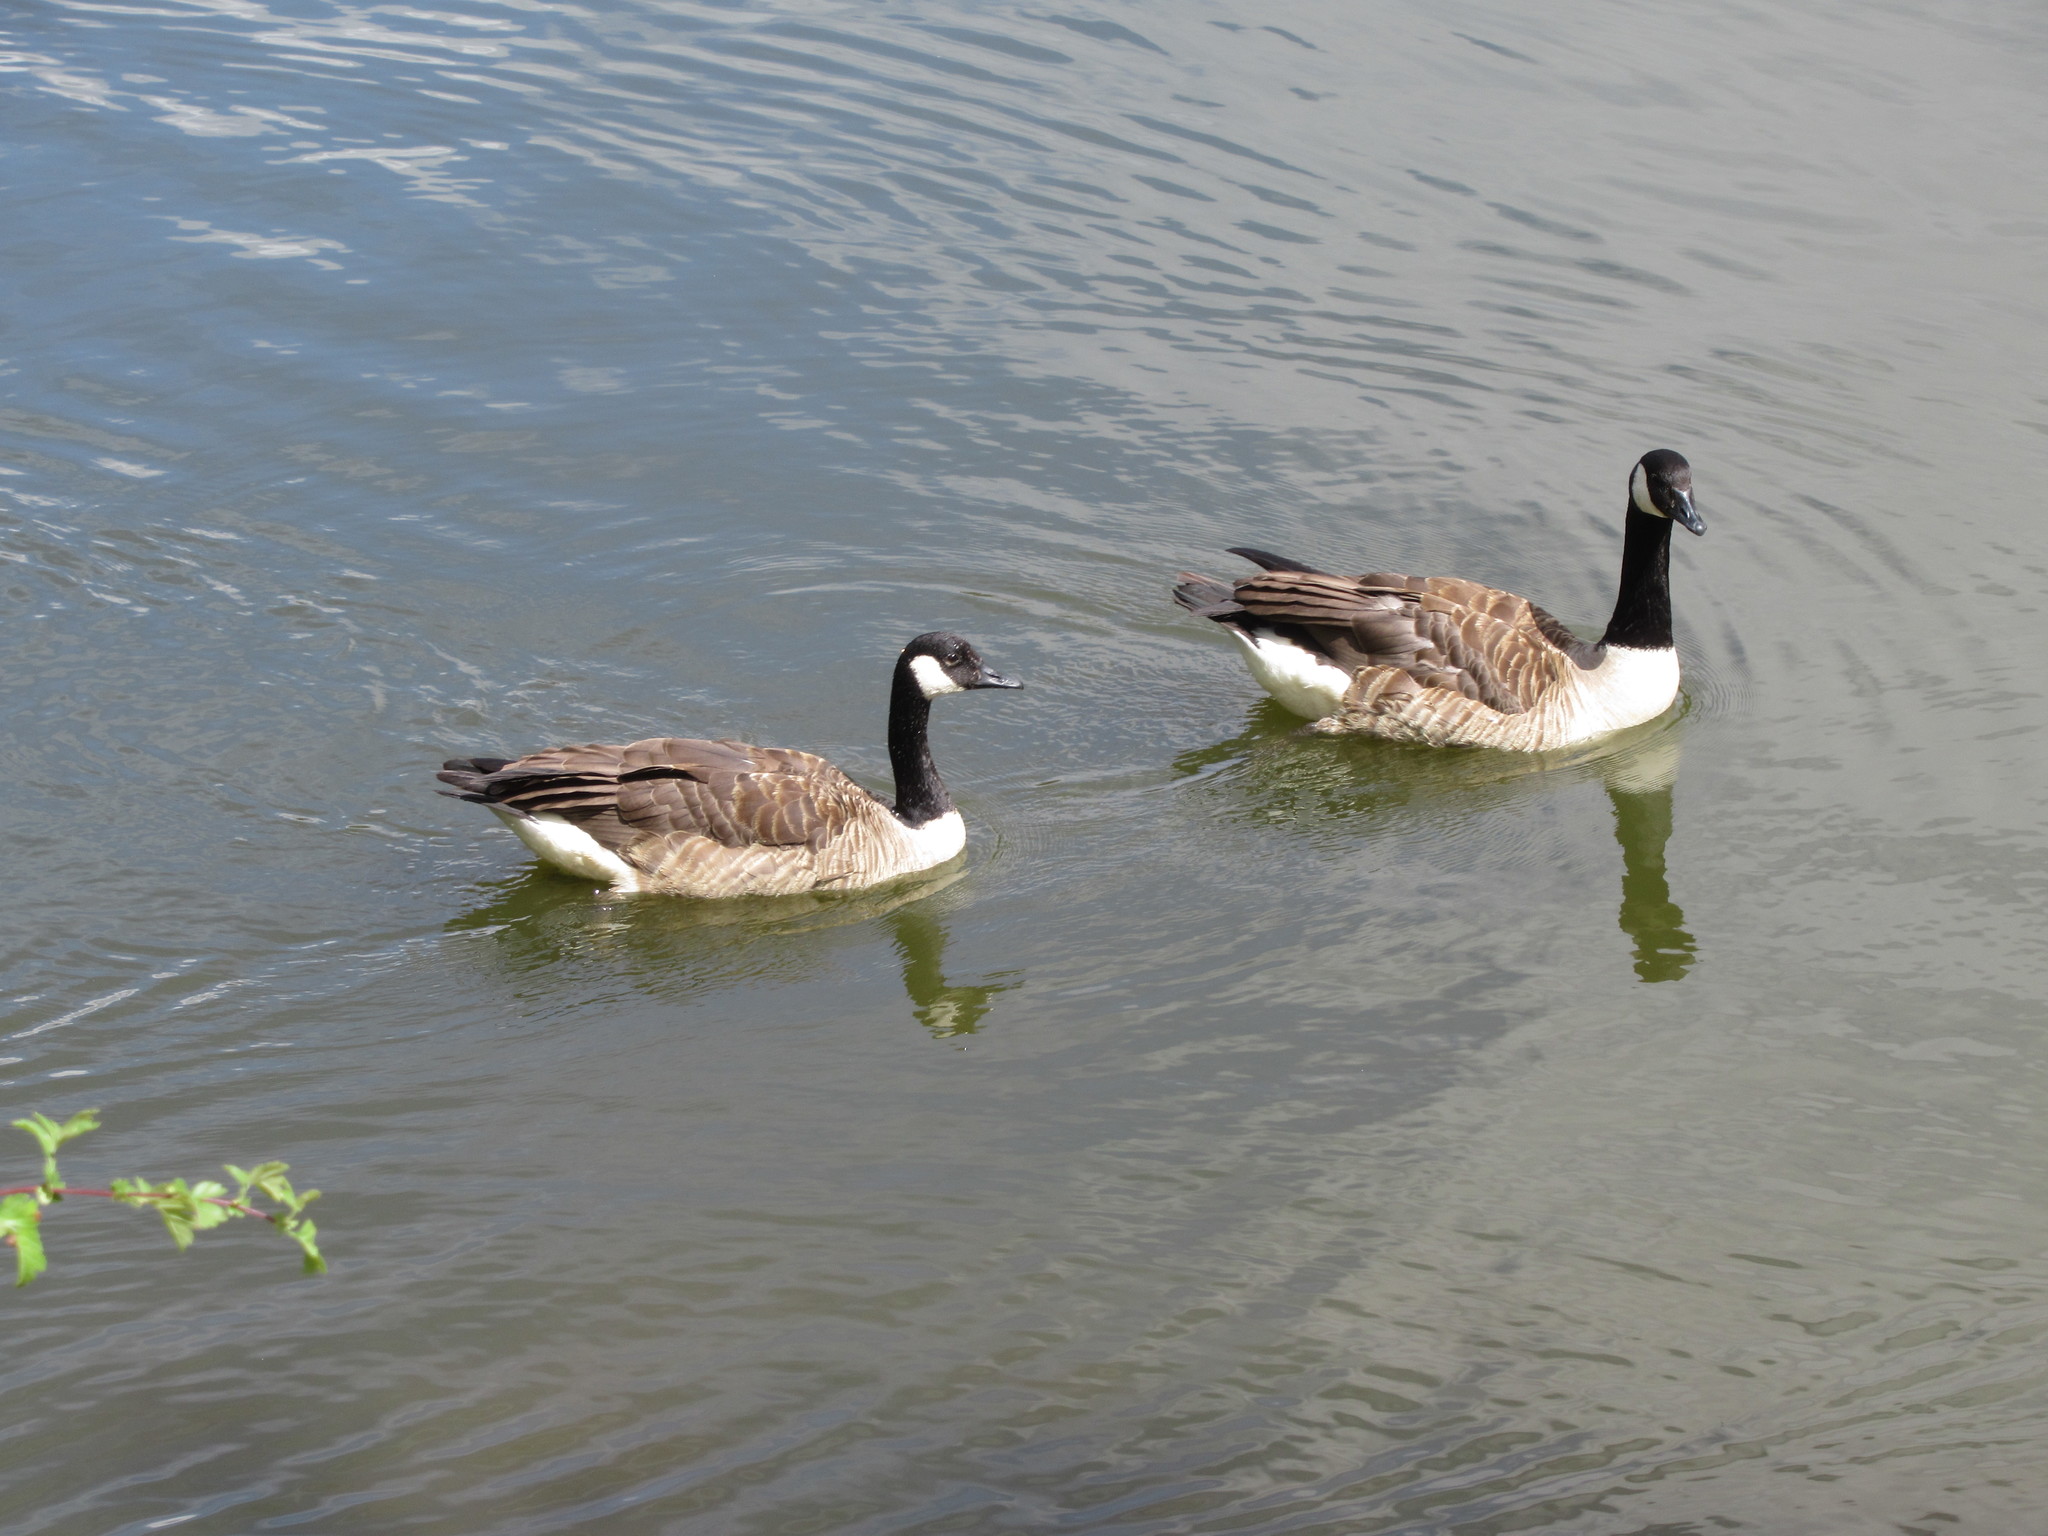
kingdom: Animalia
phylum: Chordata
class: Aves
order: Anseriformes
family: Anatidae
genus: Branta
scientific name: Branta canadensis
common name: Canada goose
